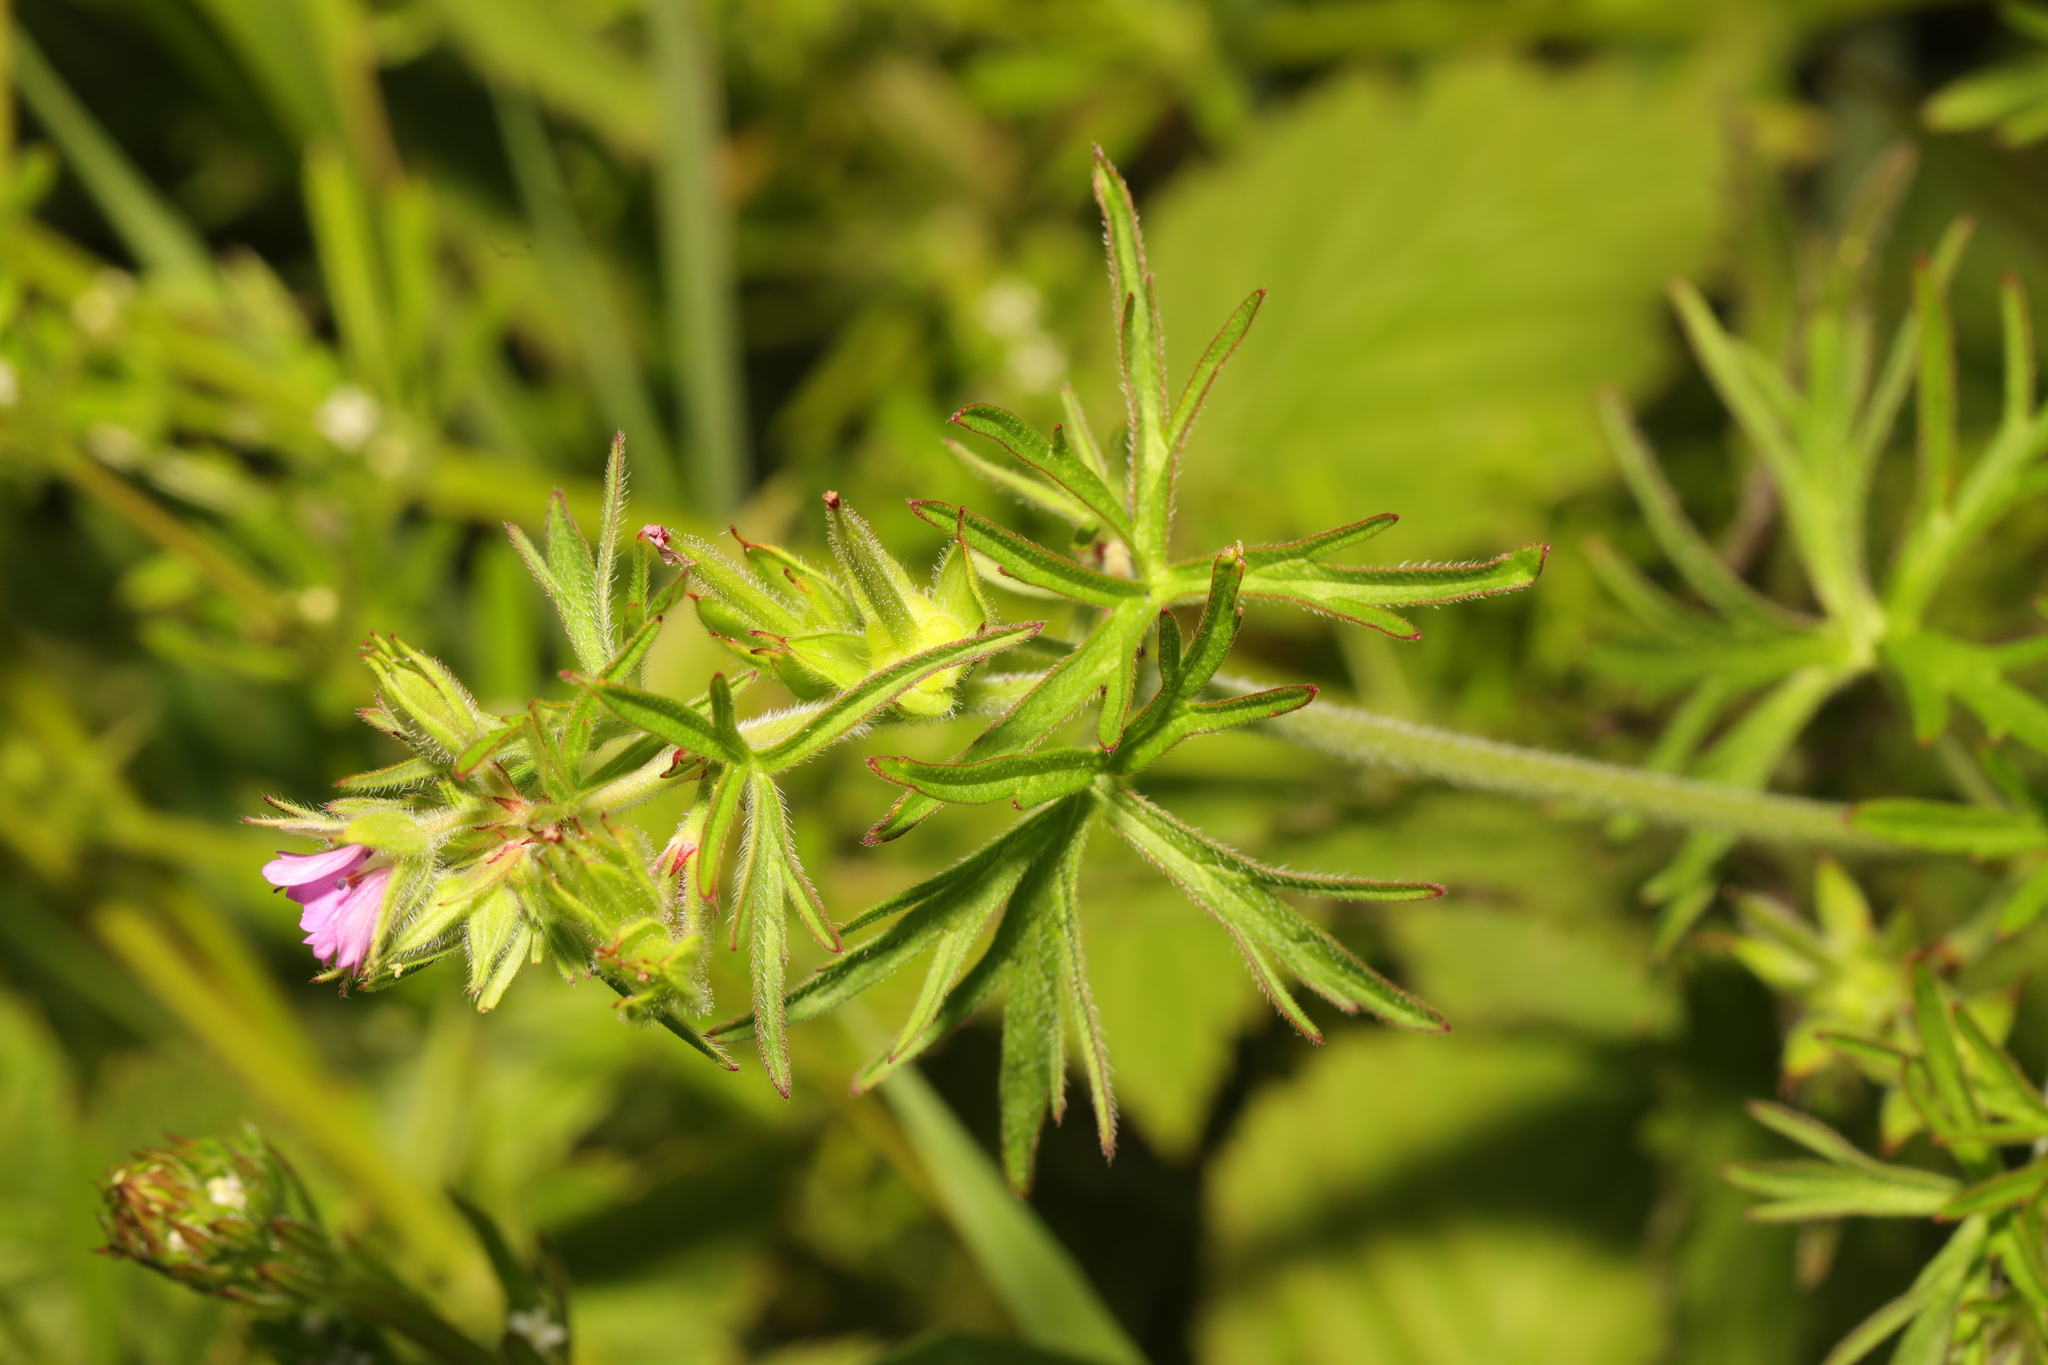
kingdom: Plantae
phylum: Tracheophyta
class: Magnoliopsida
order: Geraniales
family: Geraniaceae
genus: Geranium
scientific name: Geranium dissectum
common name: Cut-leaved crane's-bill
